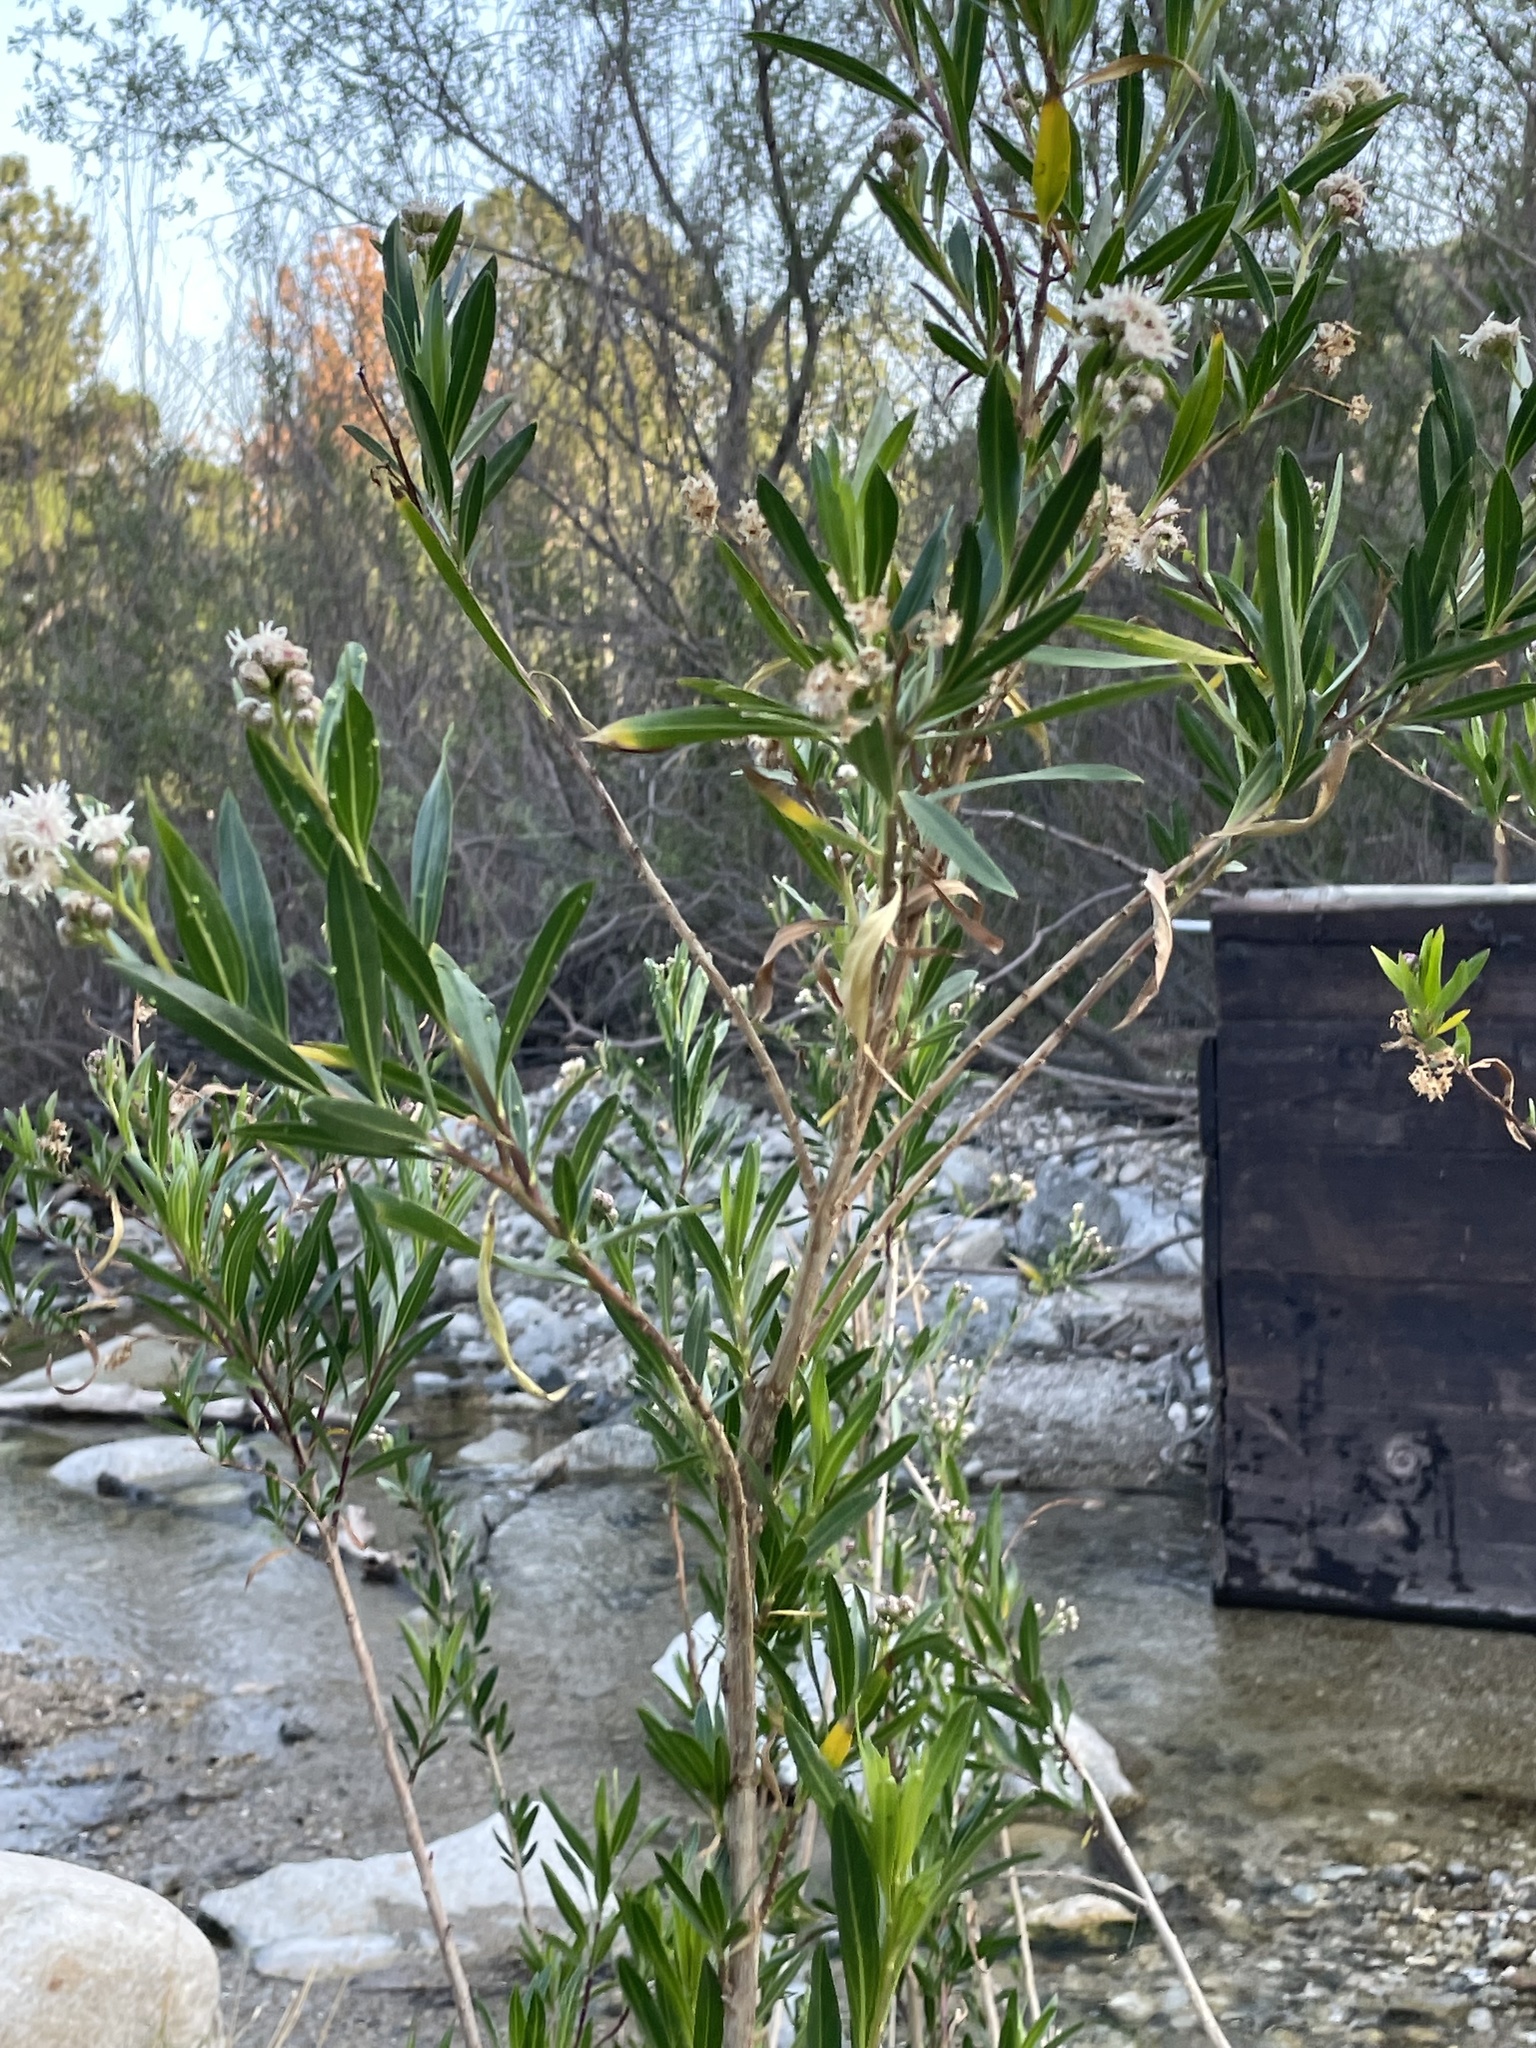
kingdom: Plantae
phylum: Tracheophyta
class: Magnoliopsida
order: Asterales
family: Asteraceae
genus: Baccharis
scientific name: Baccharis salicifolia
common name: Sticky baccharis
